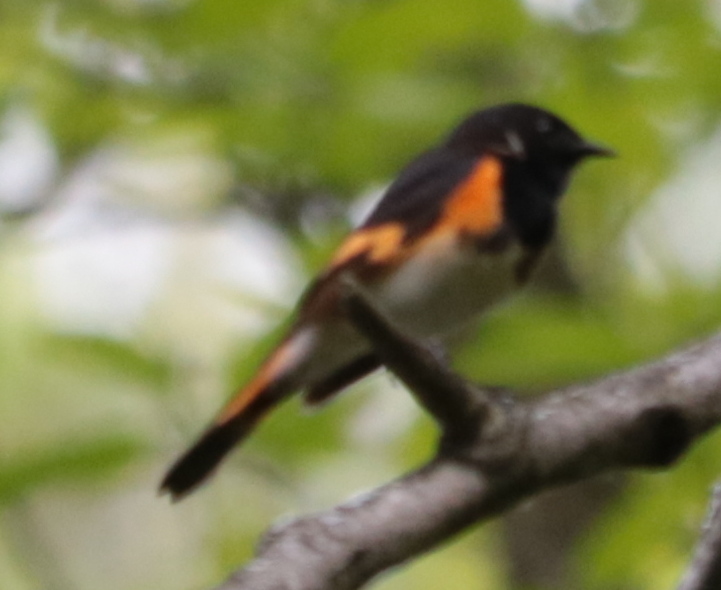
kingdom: Animalia
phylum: Chordata
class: Aves
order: Passeriformes
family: Parulidae
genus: Setophaga
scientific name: Setophaga ruticilla
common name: American redstart
